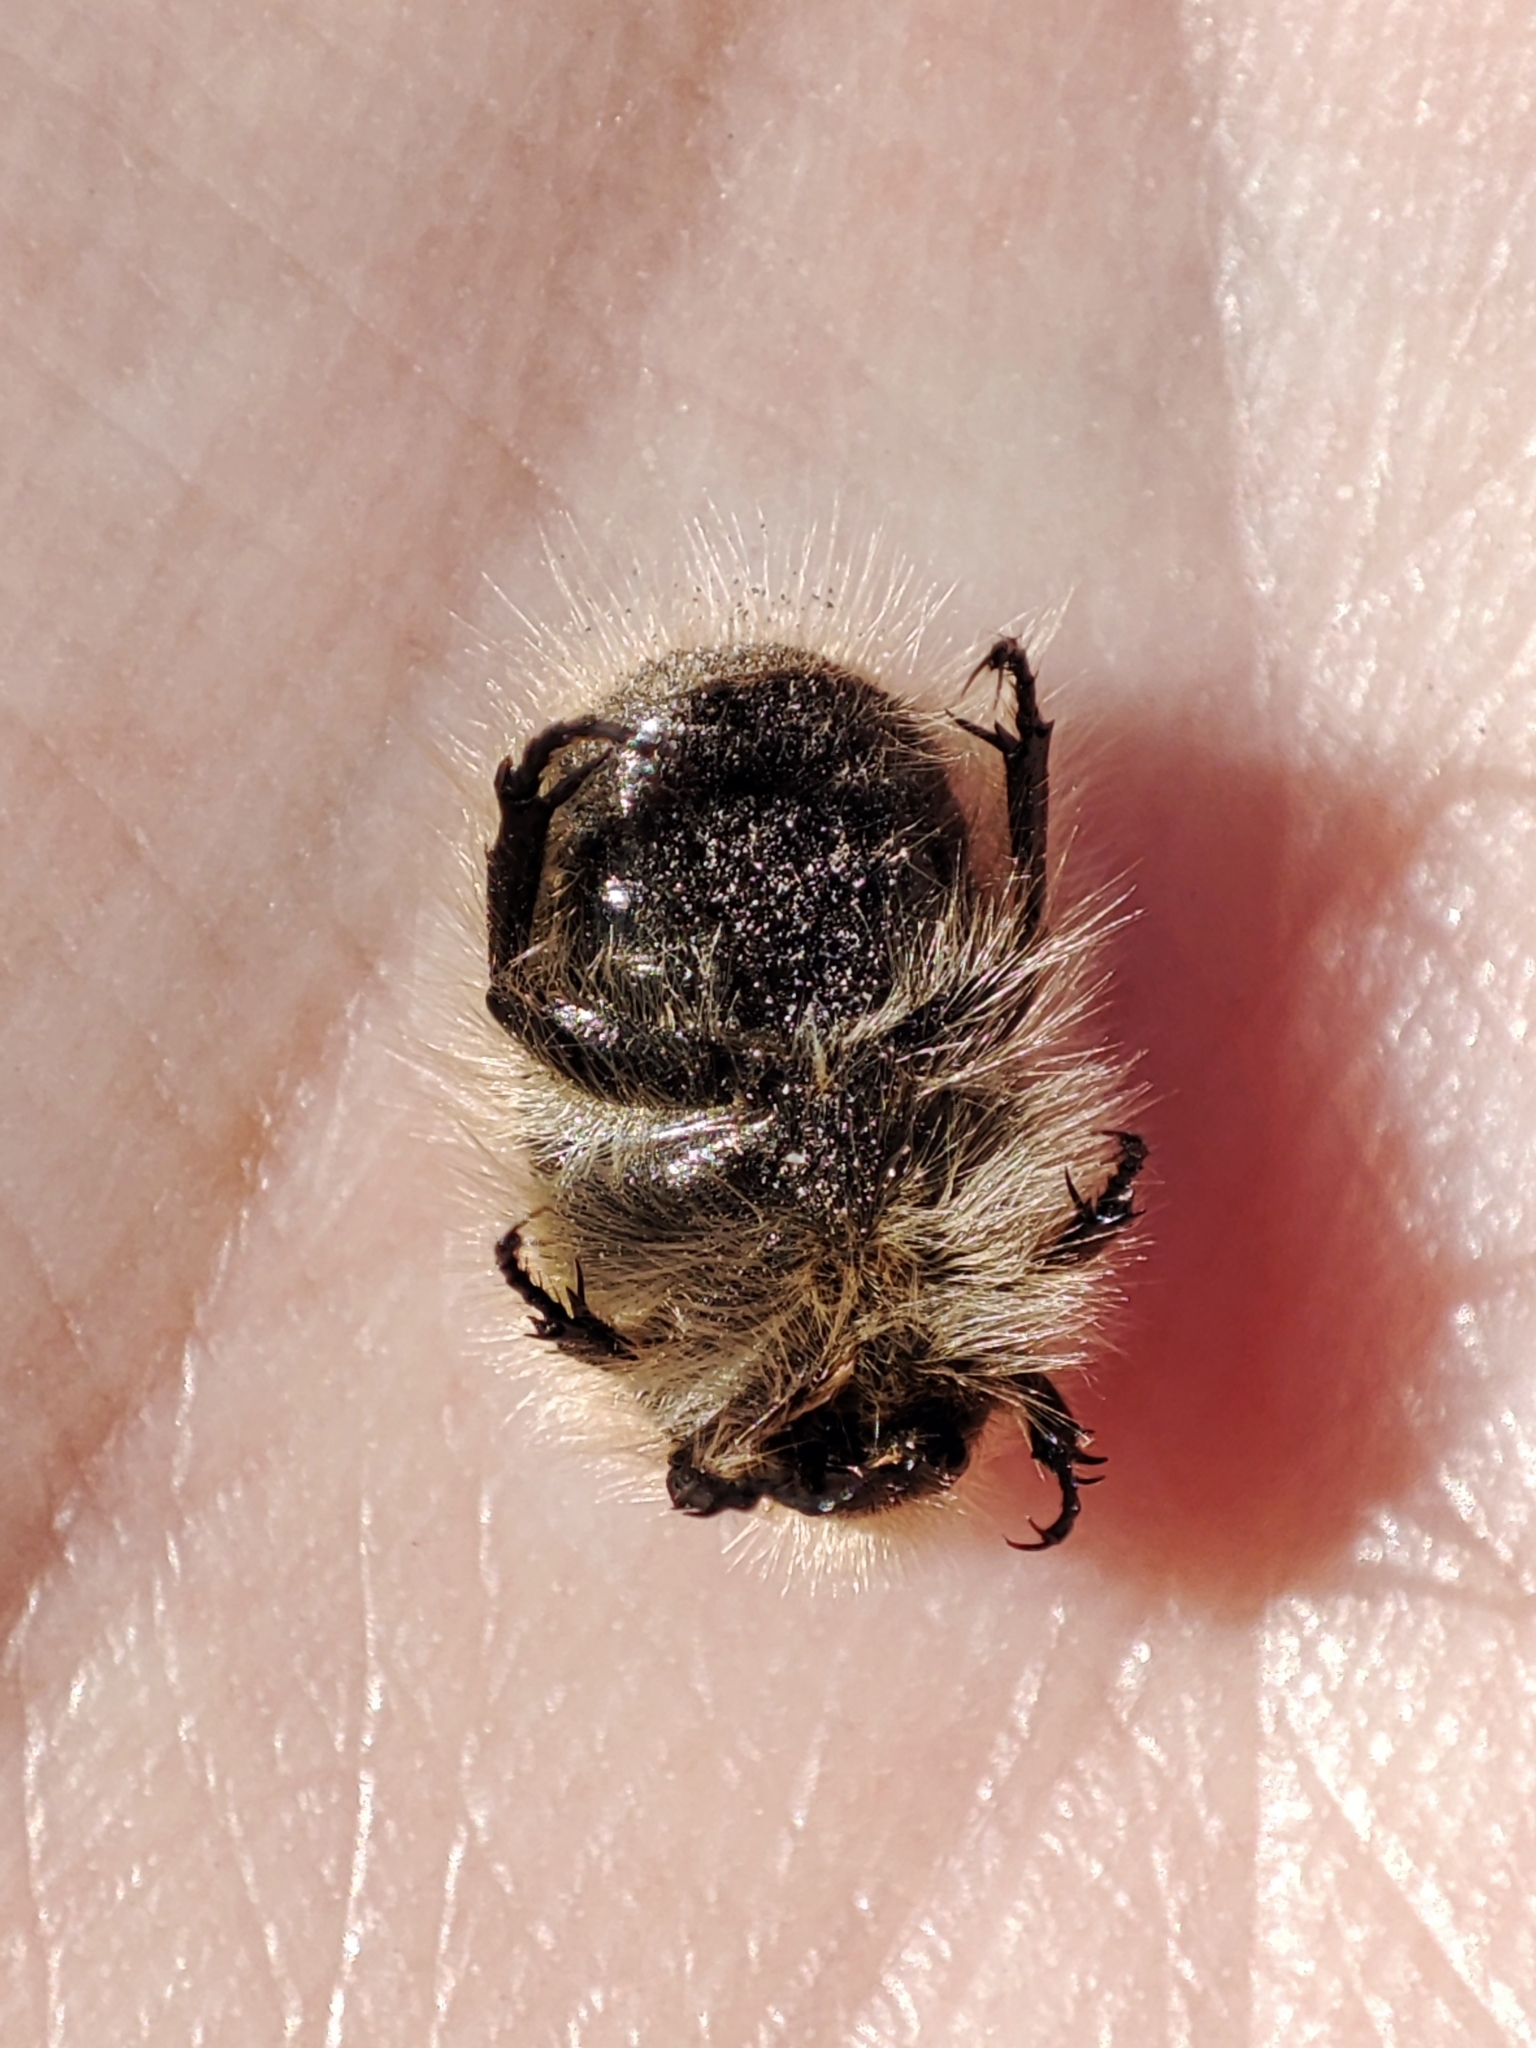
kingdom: Animalia
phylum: Arthropoda
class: Insecta
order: Coleoptera
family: Scarabaeidae
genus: Tropinota
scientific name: Tropinota hirta
